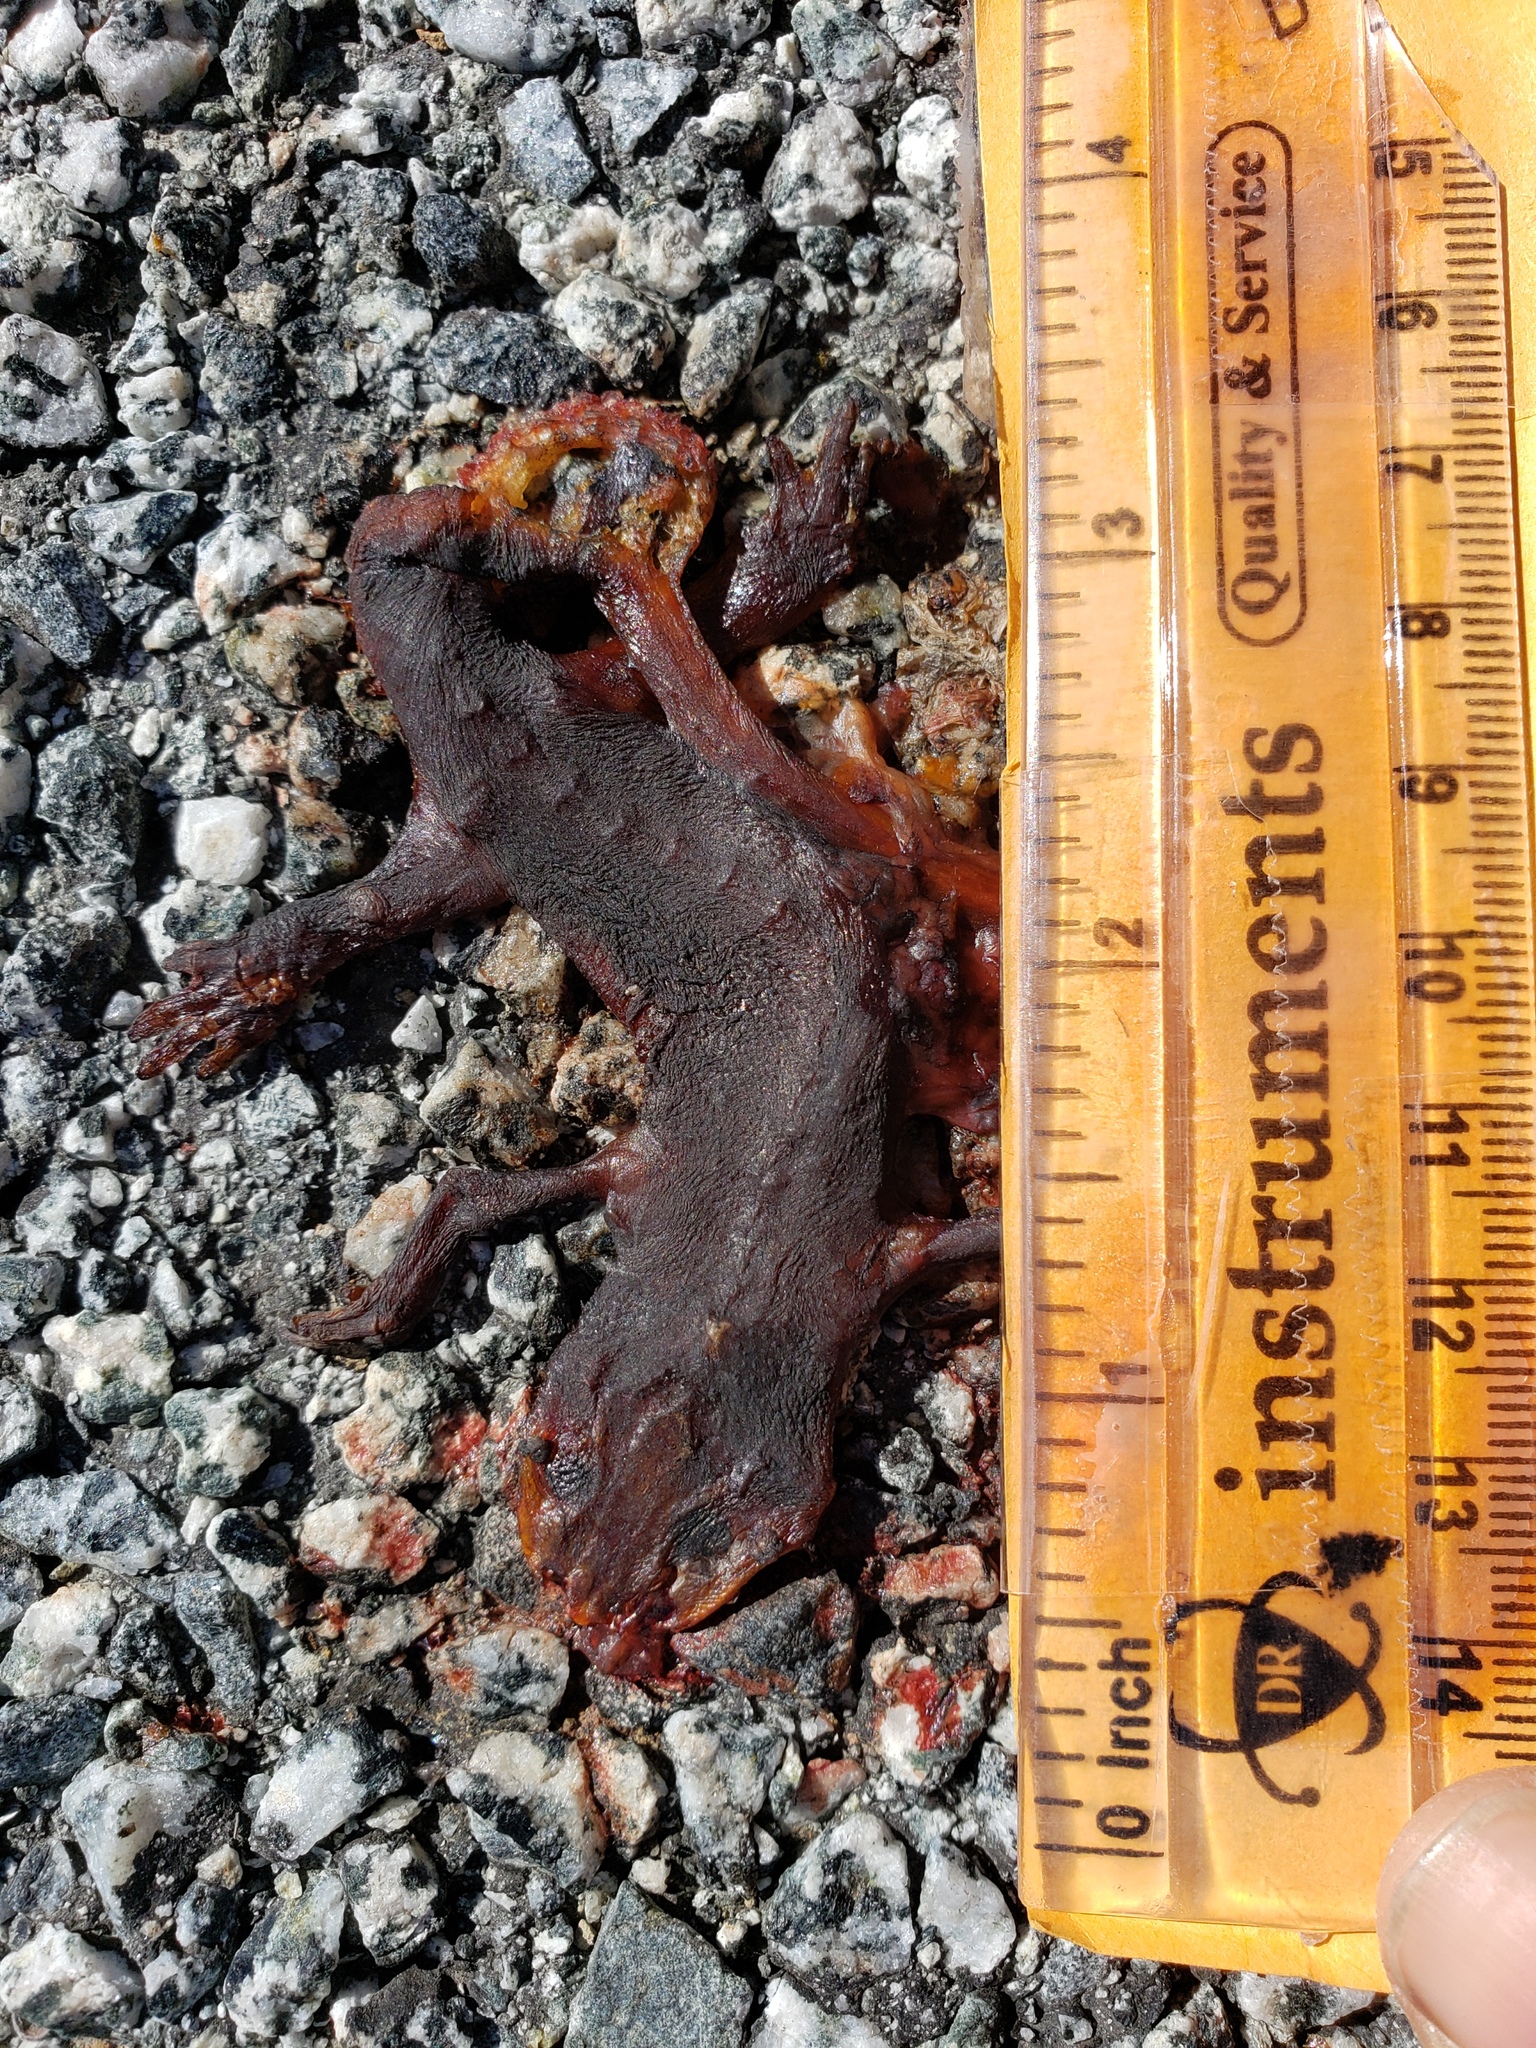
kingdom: Animalia
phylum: Chordata
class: Amphibia
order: Caudata
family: Salamandridae
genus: Taricha
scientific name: Taricha
